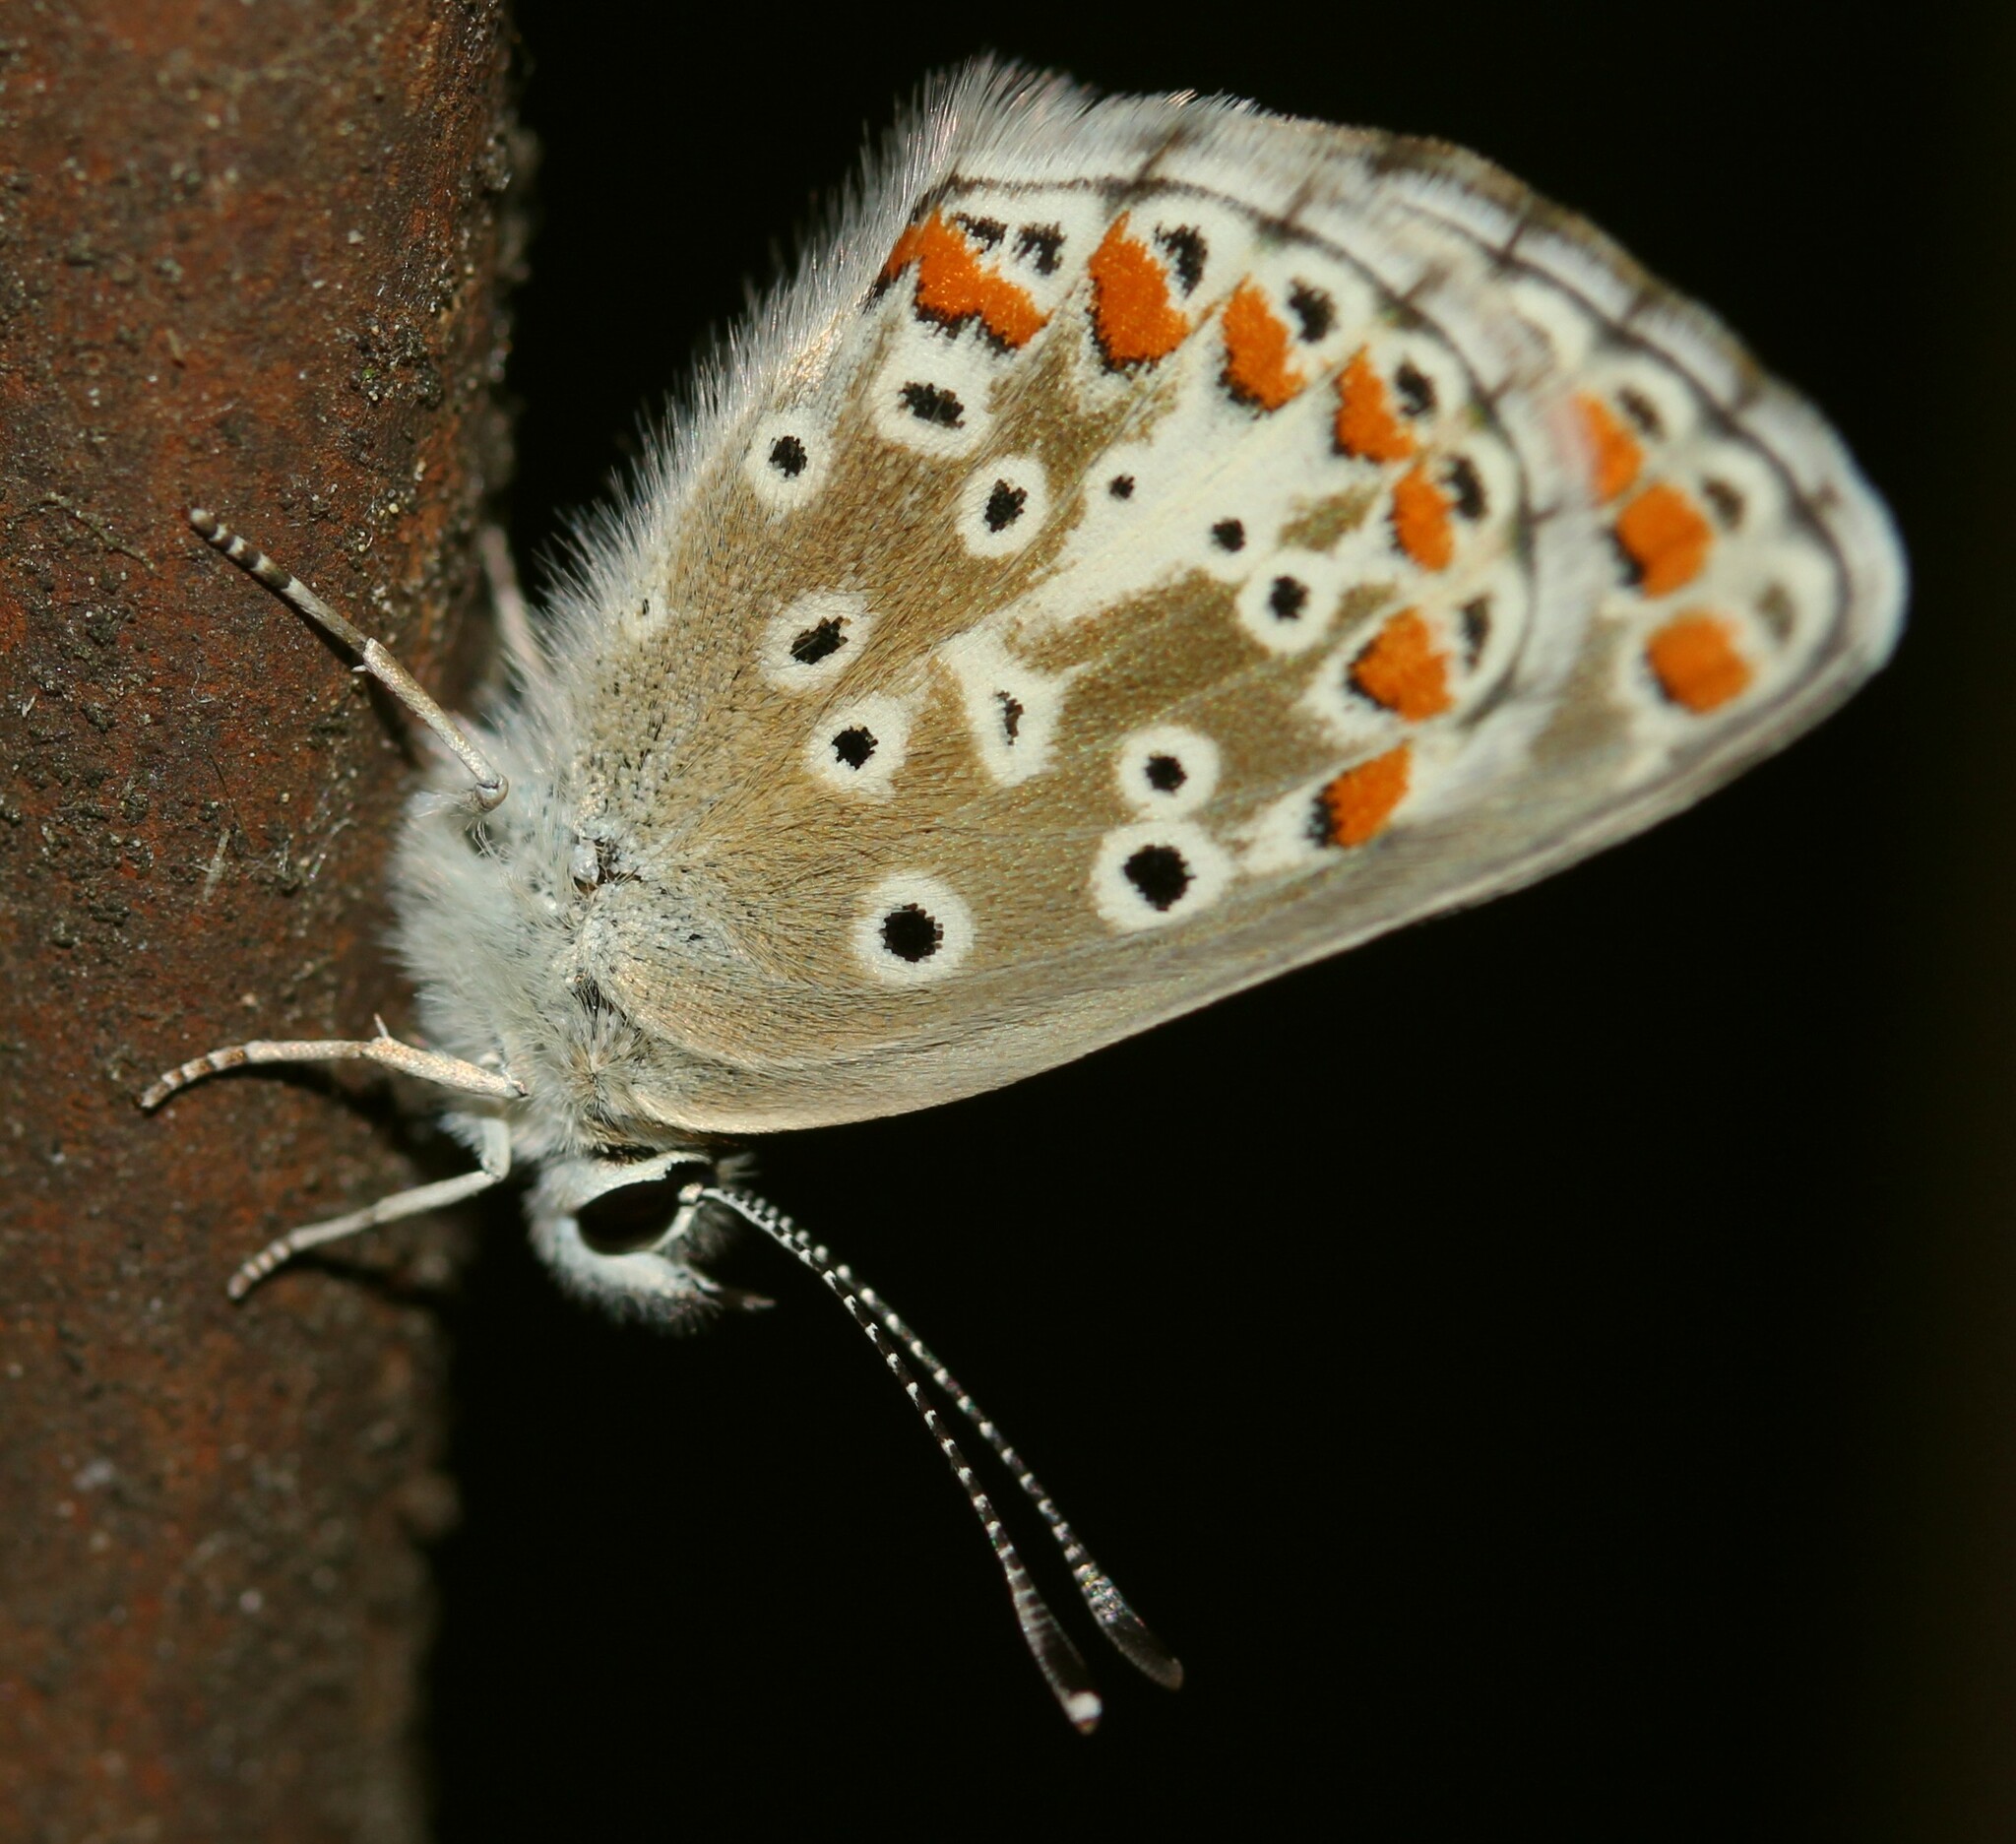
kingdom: Animalia
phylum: Arthropoda
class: Insecta
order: Lepidoptera
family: Lycaenidae
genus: Aricia
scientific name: Aricia agestis
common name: Brown argus
